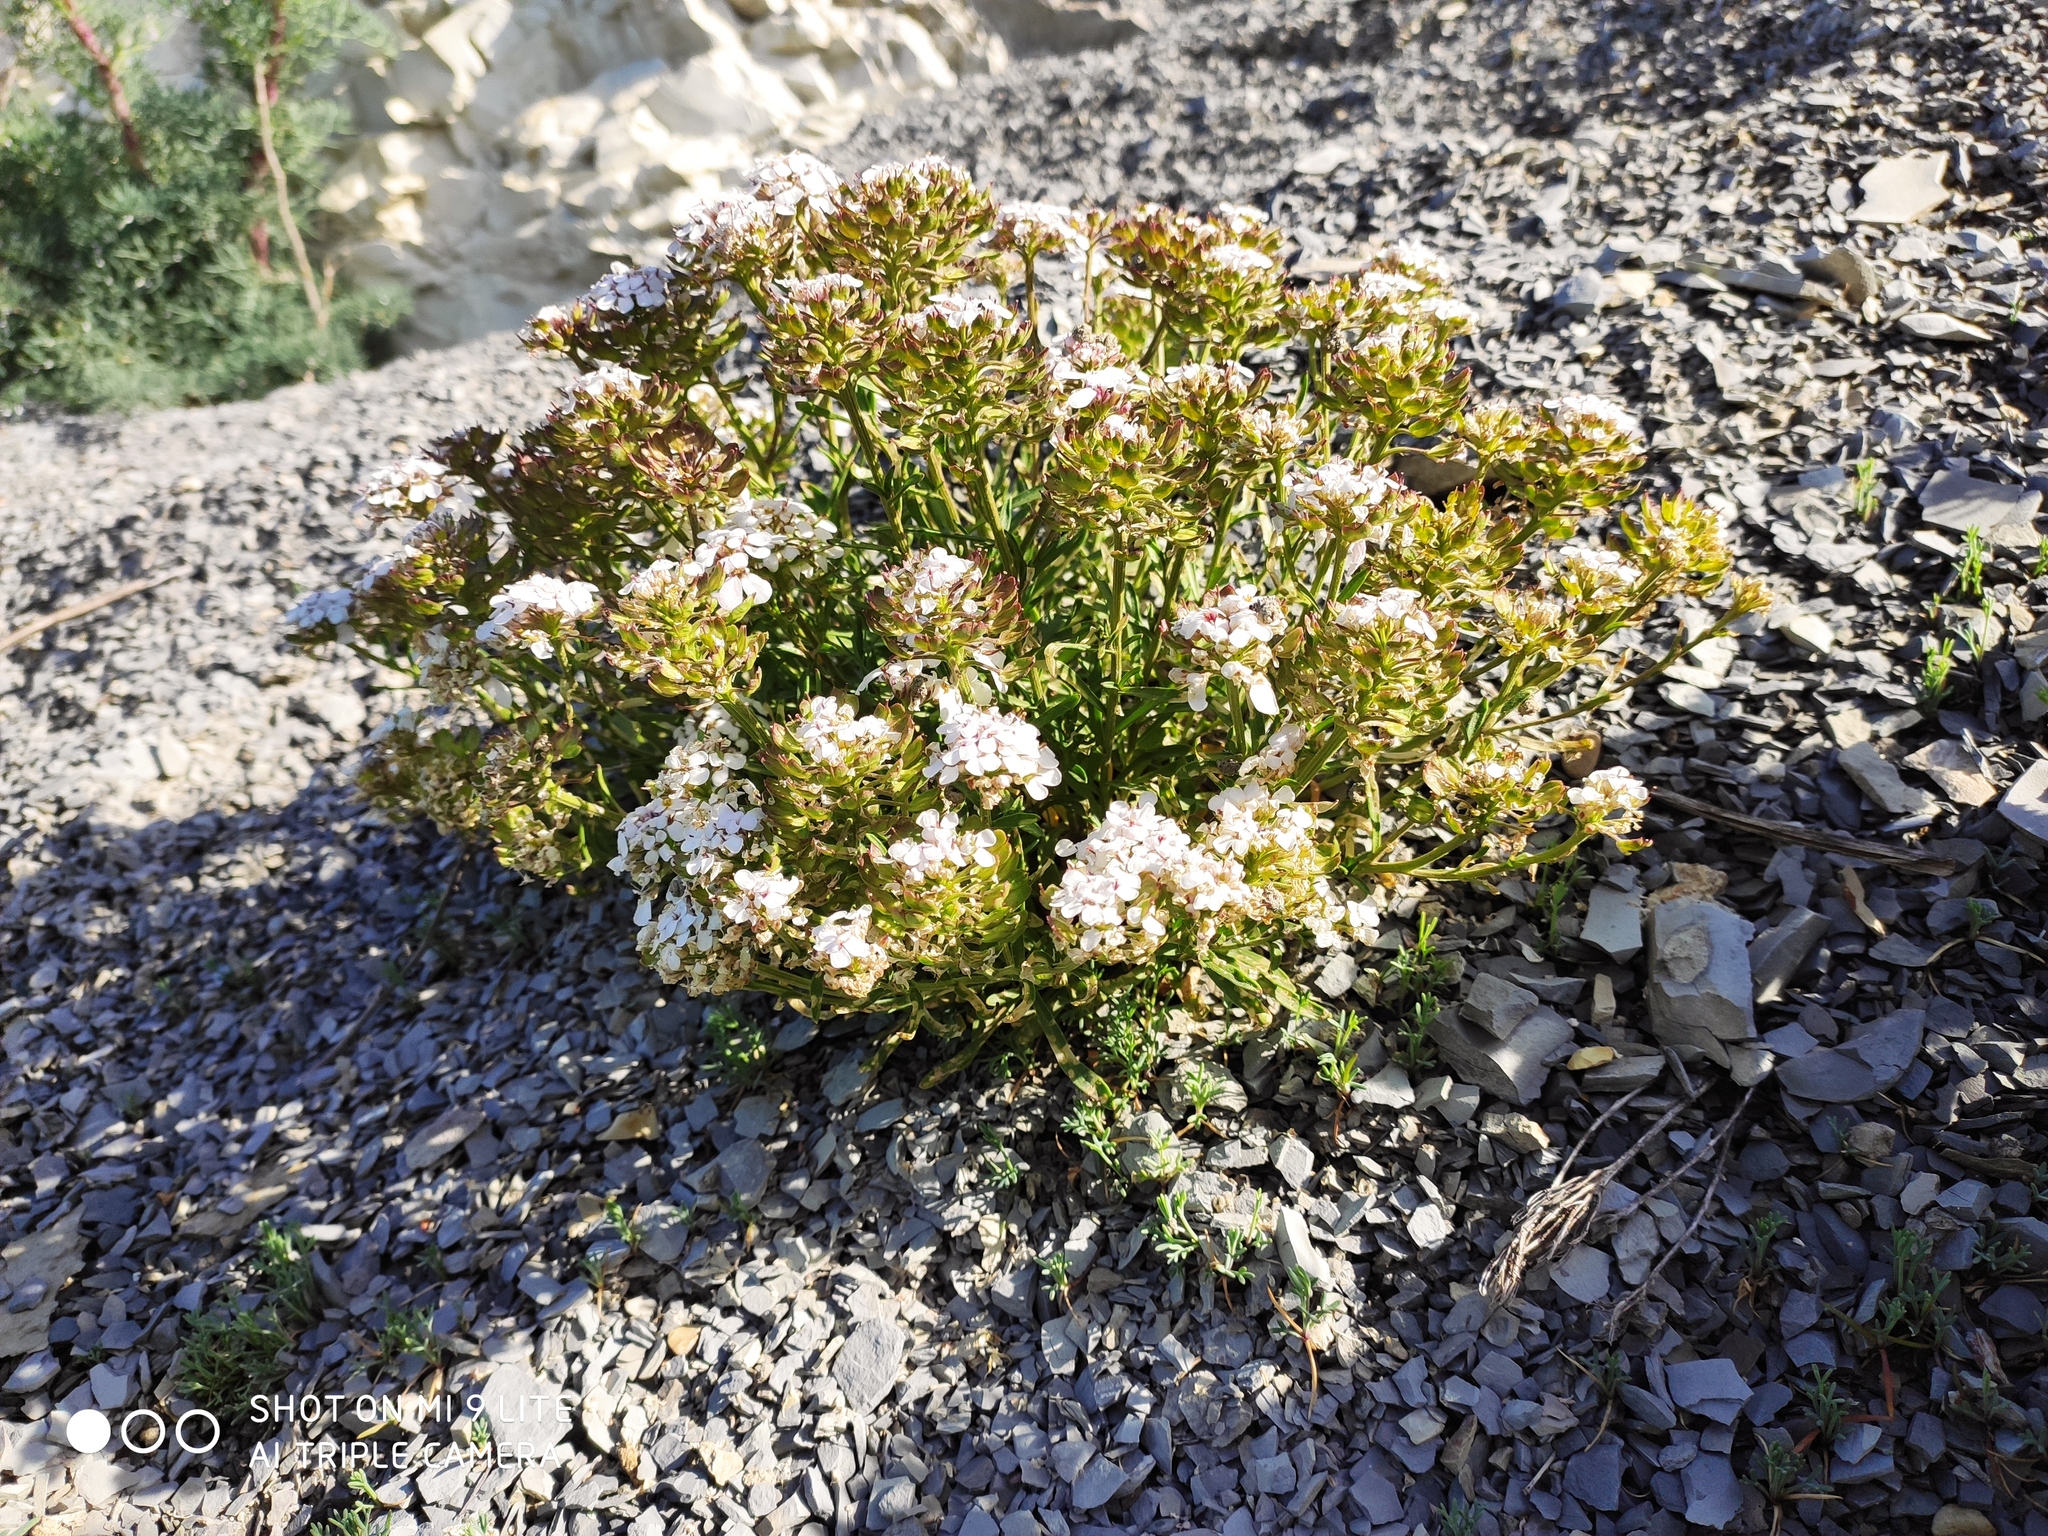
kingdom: Plantae
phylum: Tracheophyta
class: Magnoliopsida
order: Brassicales
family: Brassicaceae
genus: Iberis
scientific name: Iberis simplex
